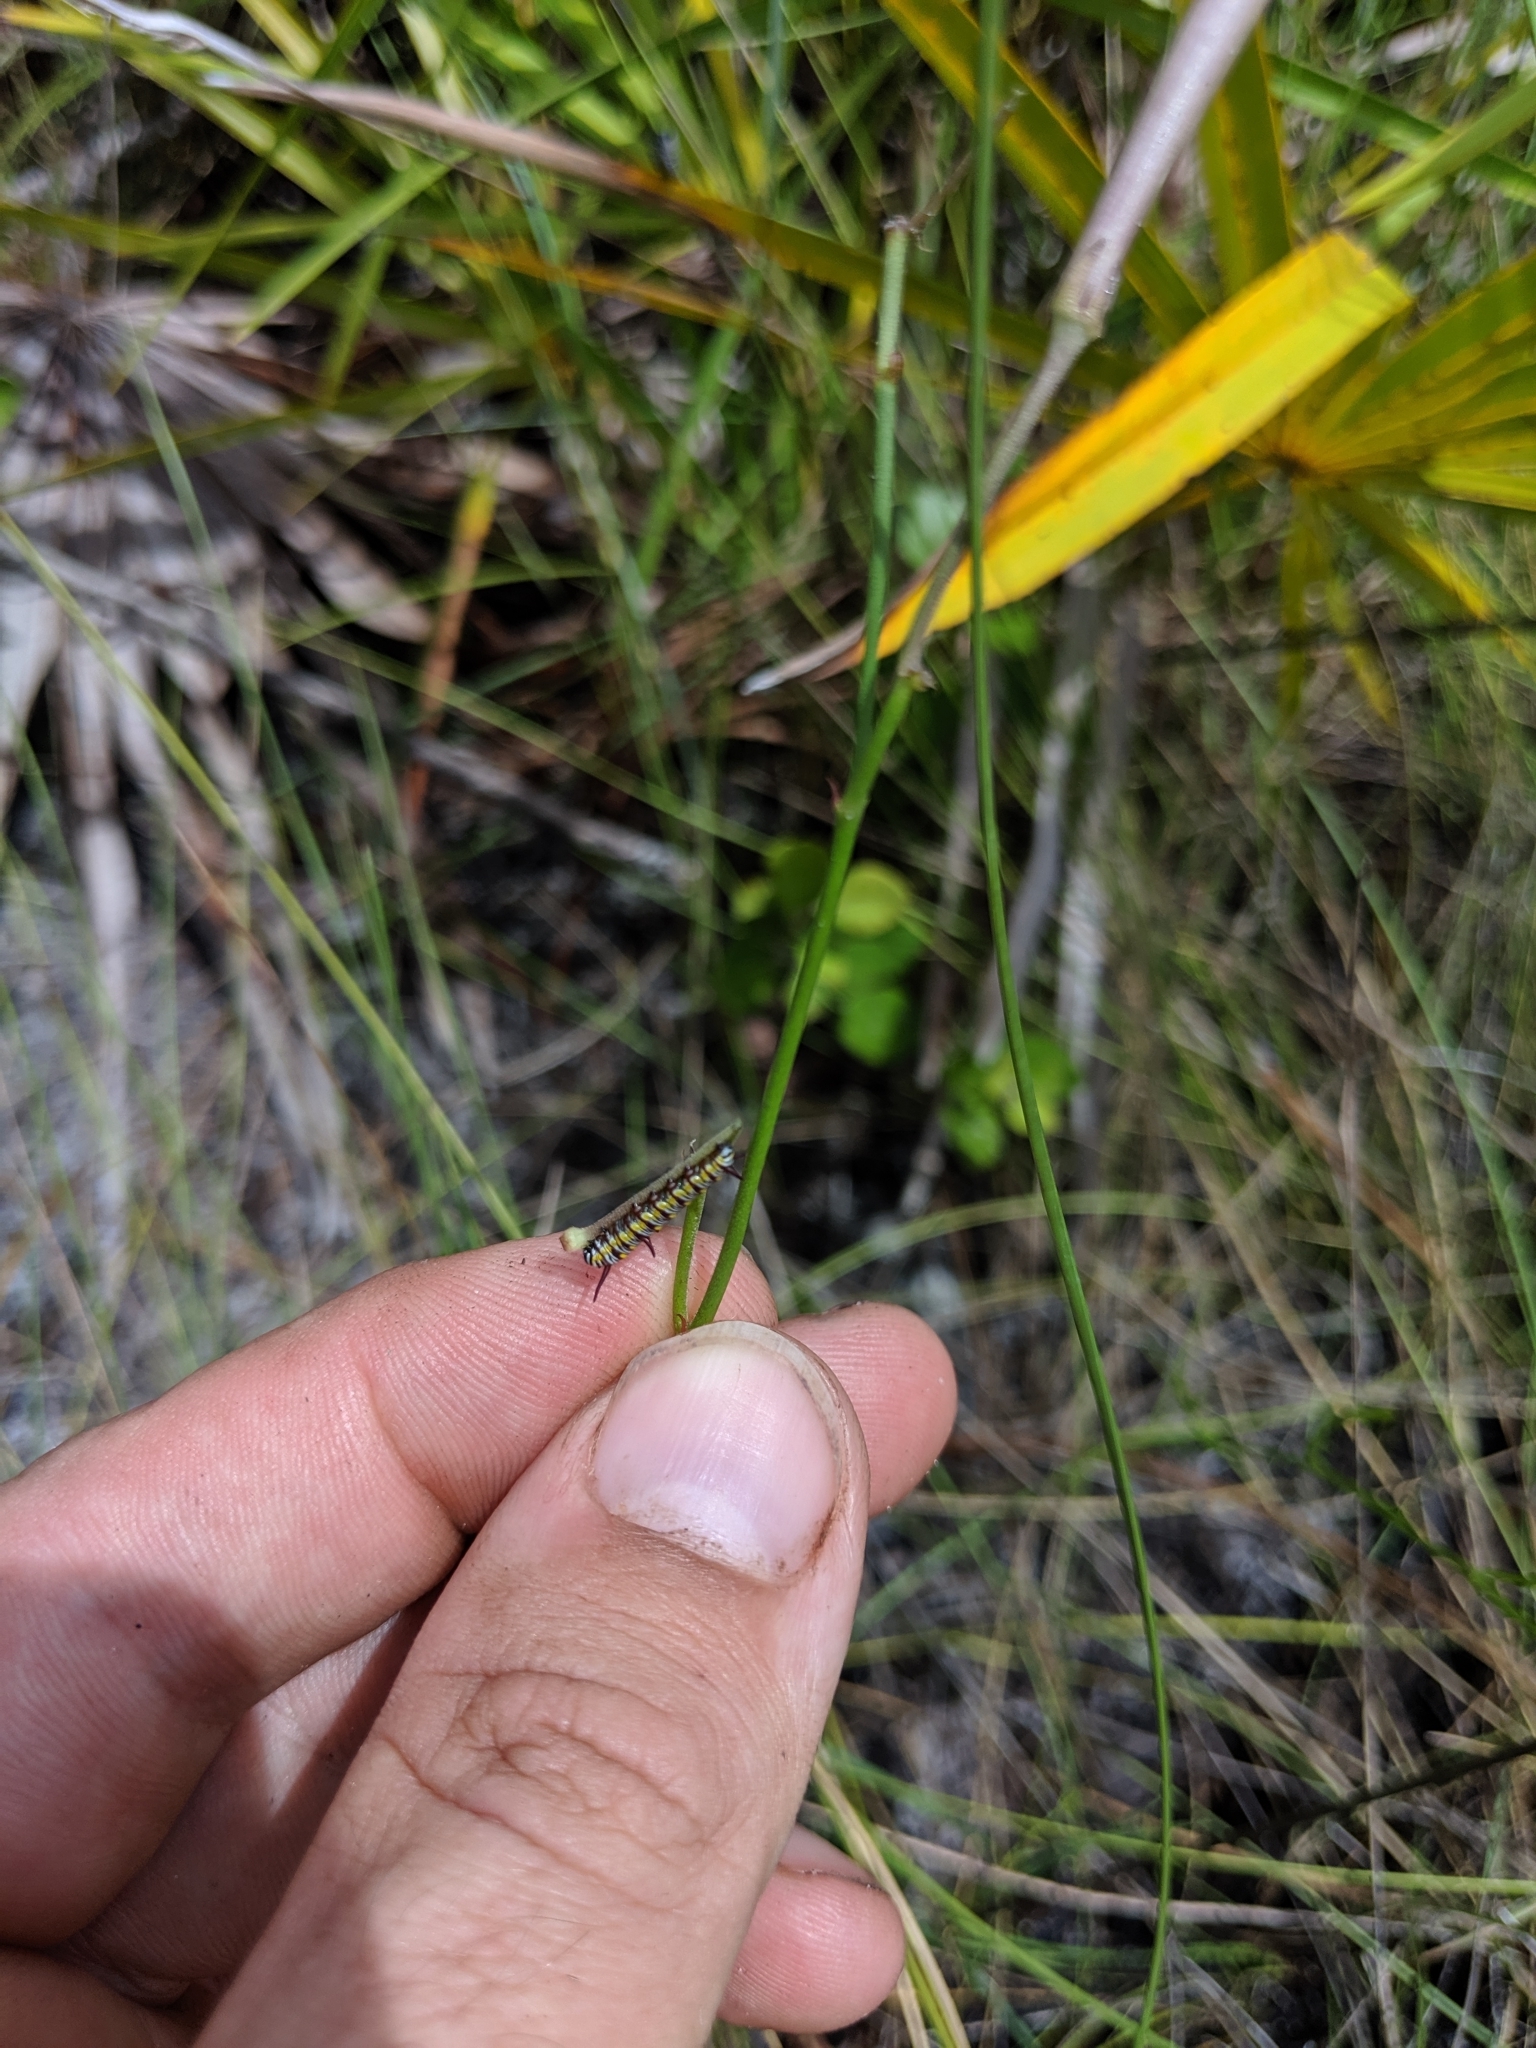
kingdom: Animalia
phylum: Arthropoda
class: Insecta
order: Lepidoptera
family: Nymphalidae
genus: Danaus
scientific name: Danaus gilippus
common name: Queen
